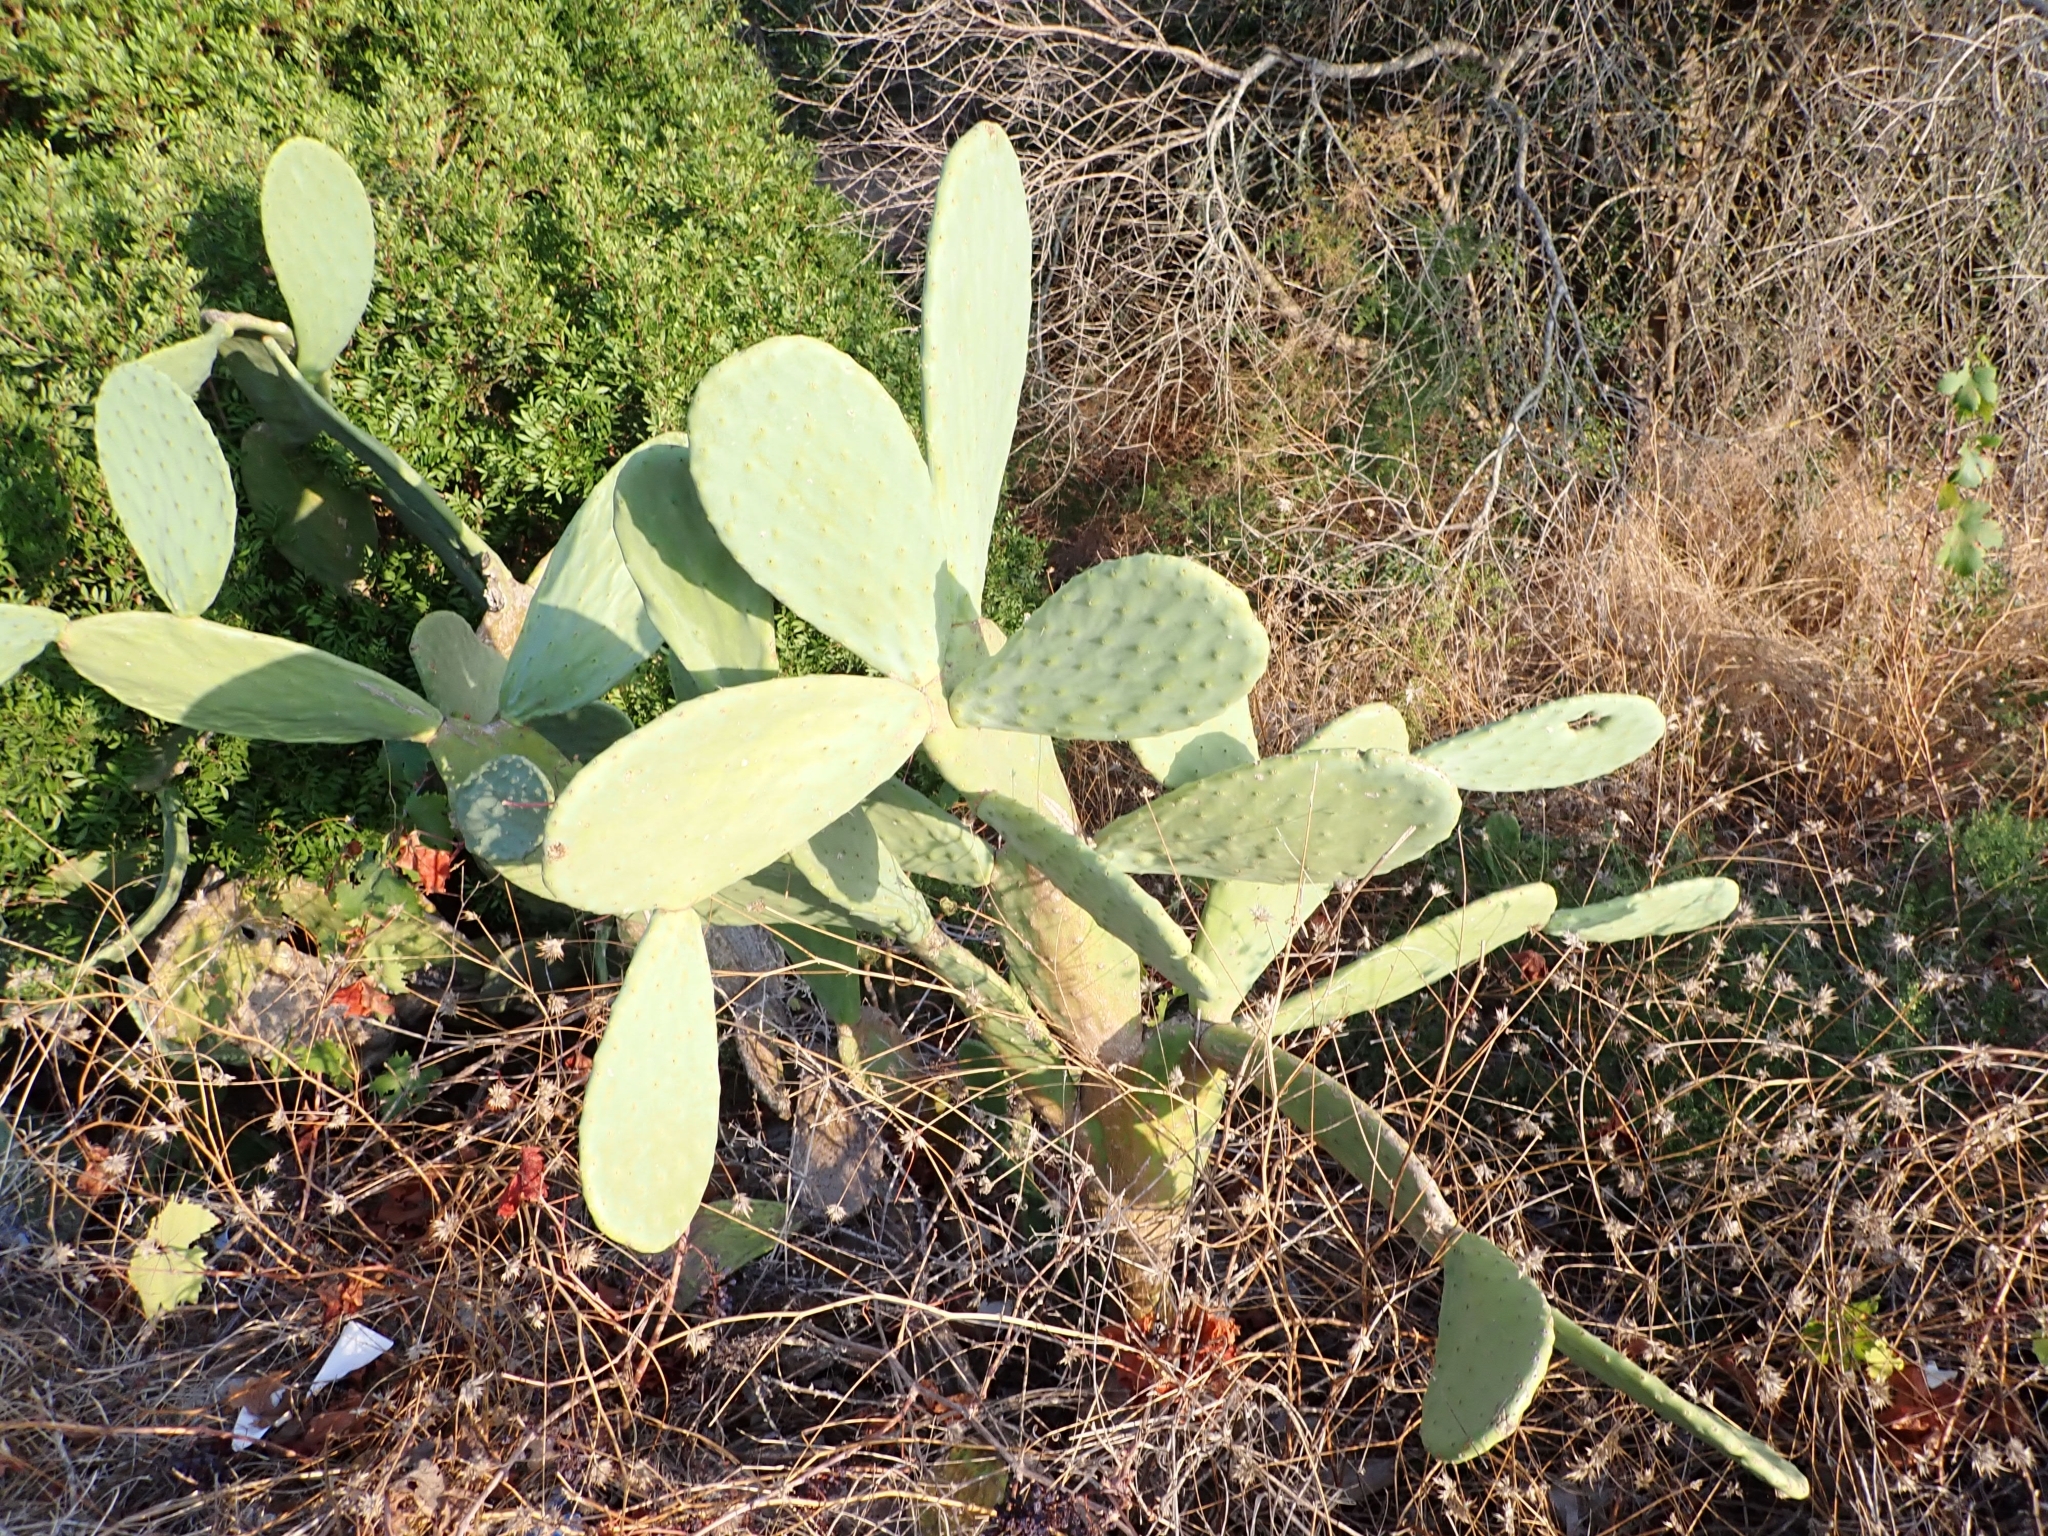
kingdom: Plantae
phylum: Tracheophyta
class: Magnoliopsida
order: Caryophyllales
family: Cactaceae
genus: Opuntia
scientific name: Opuntia ficus-indica
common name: Barbary fig
